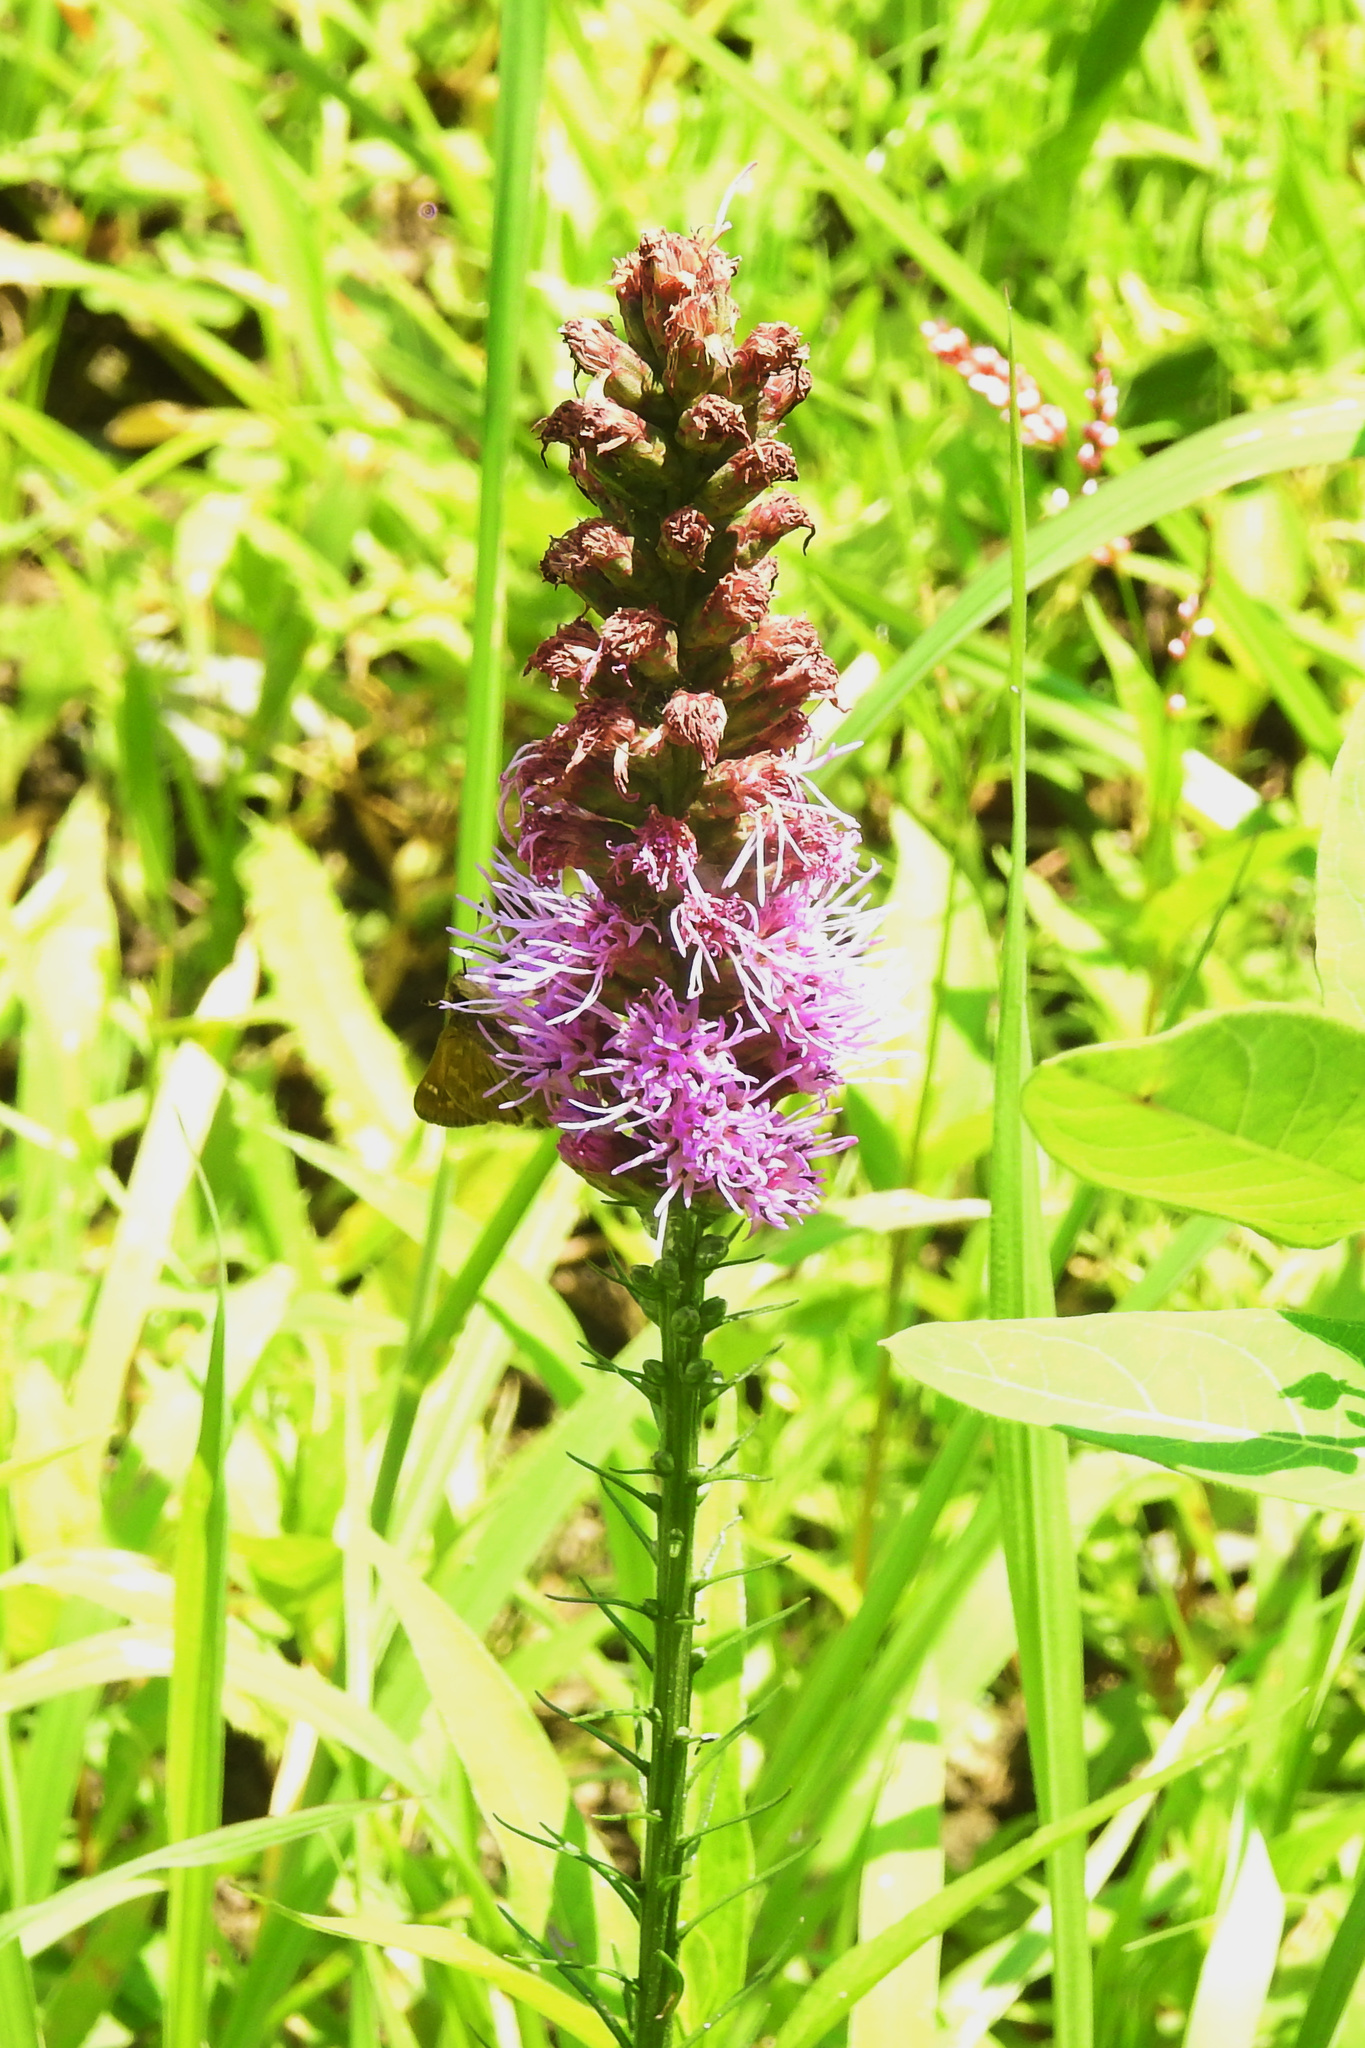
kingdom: Plantae
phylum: Tracheophyta
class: Magnoliopsida
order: Asterales
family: Asteraceae
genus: Liatris
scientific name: Liatris spicata
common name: Florist gayfeather
